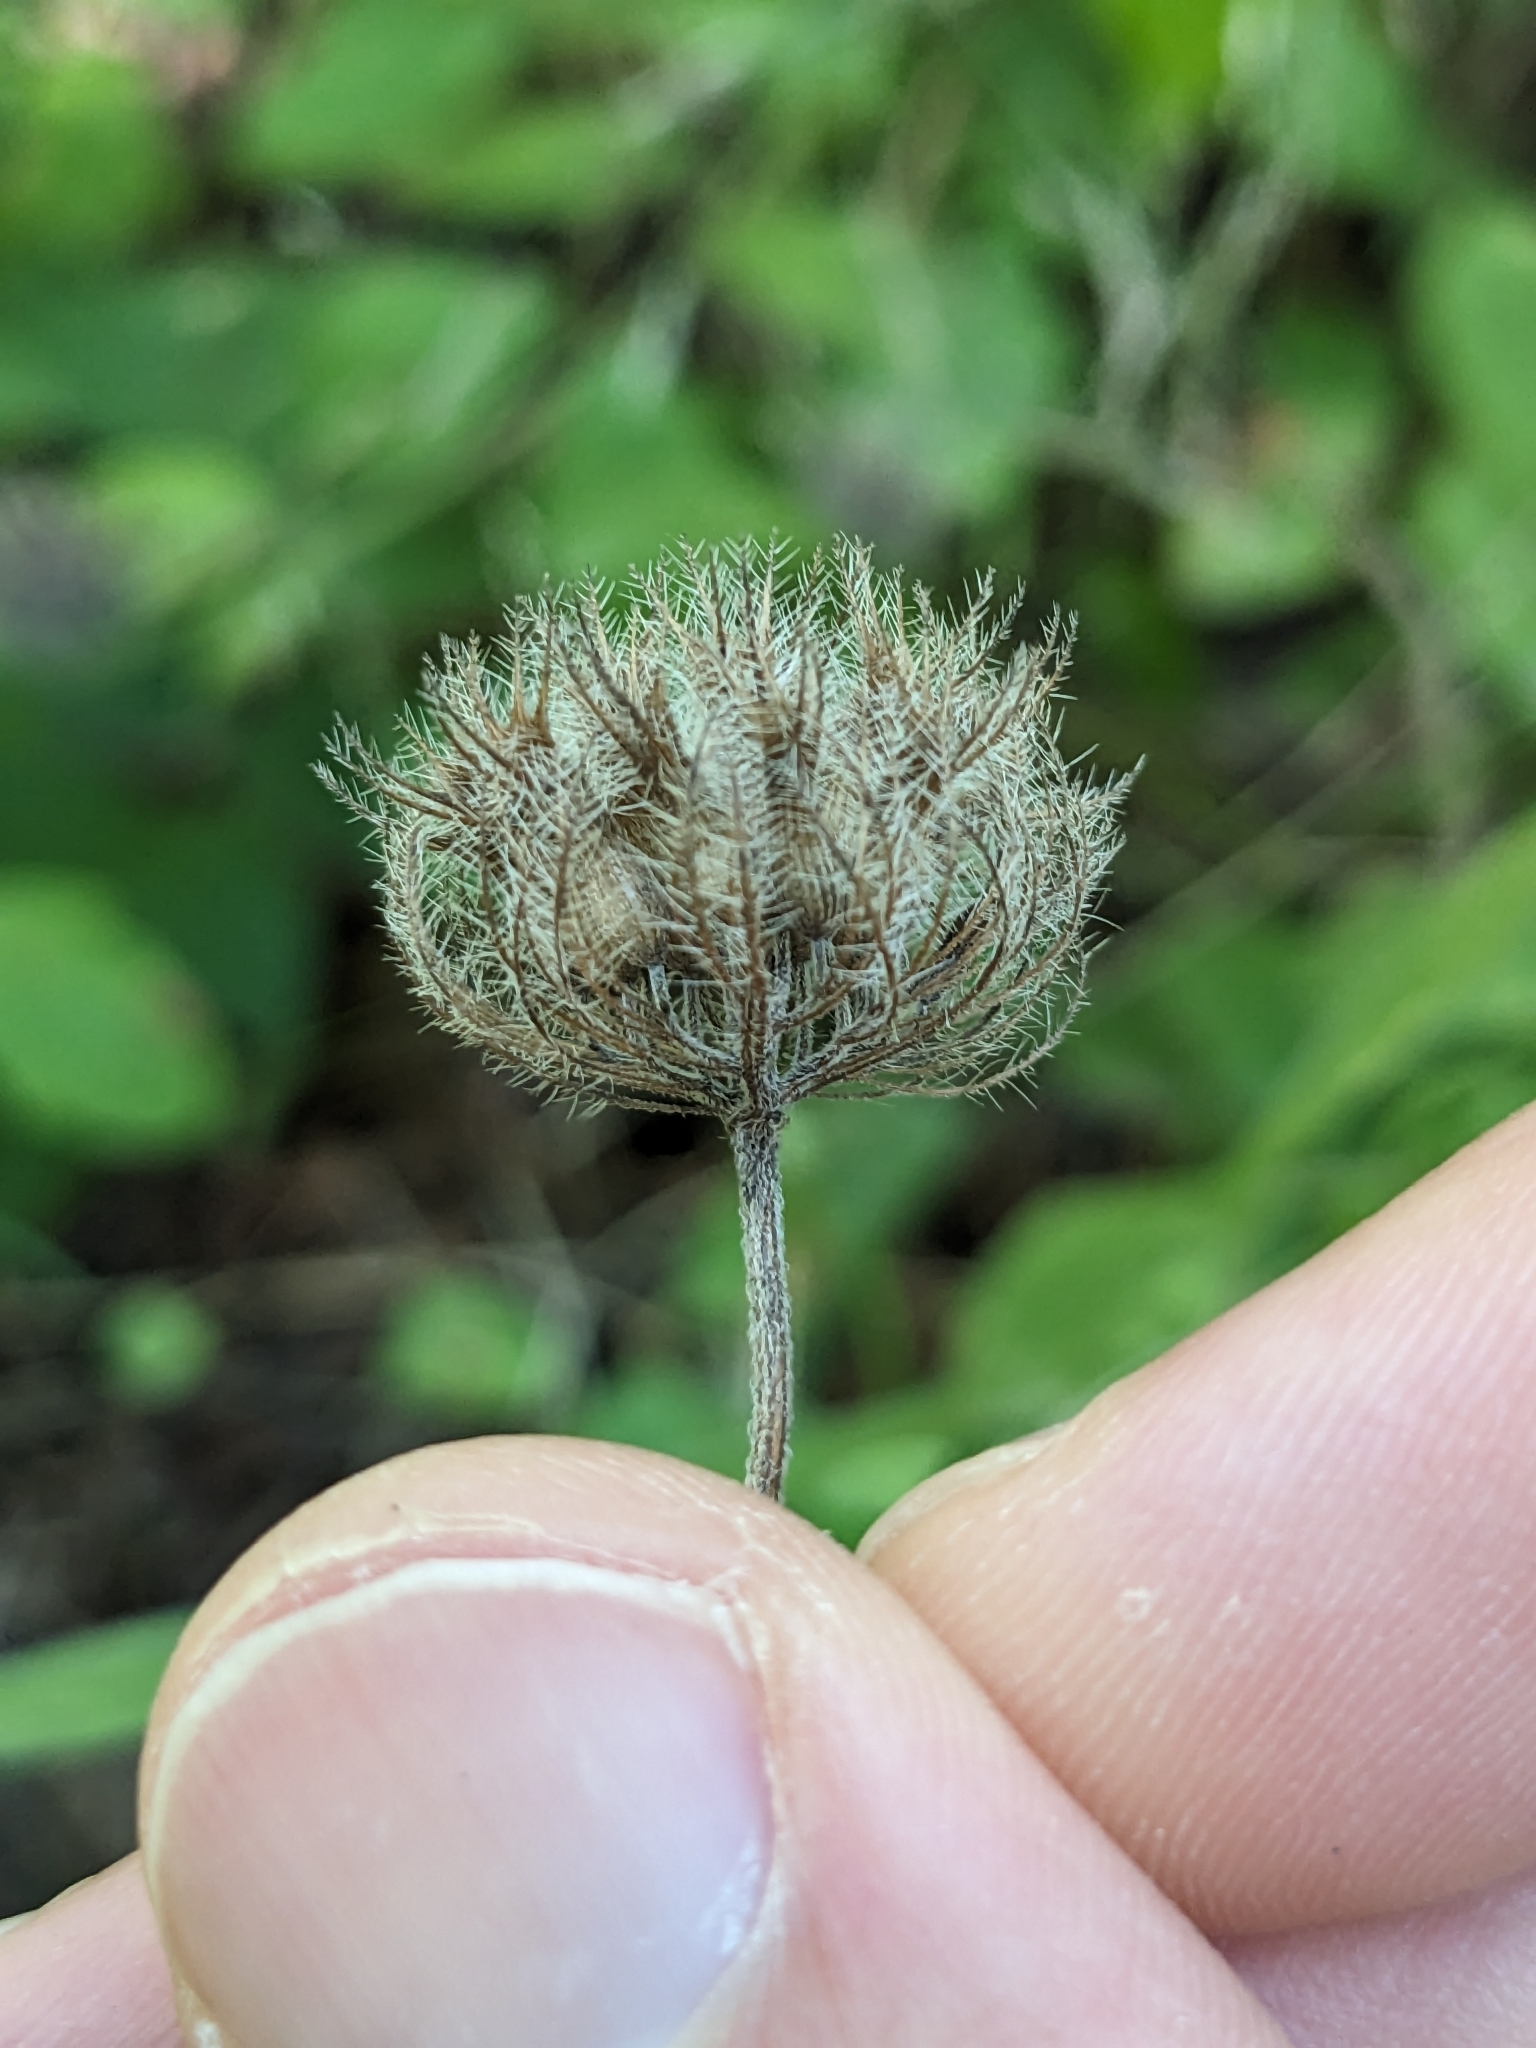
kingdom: Plantae
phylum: Tracheophyta
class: Magnoliopsida
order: Lamiales
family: Lamiaceae
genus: Clinopodium
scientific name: Clinopodium vulgare
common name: Wild basil
